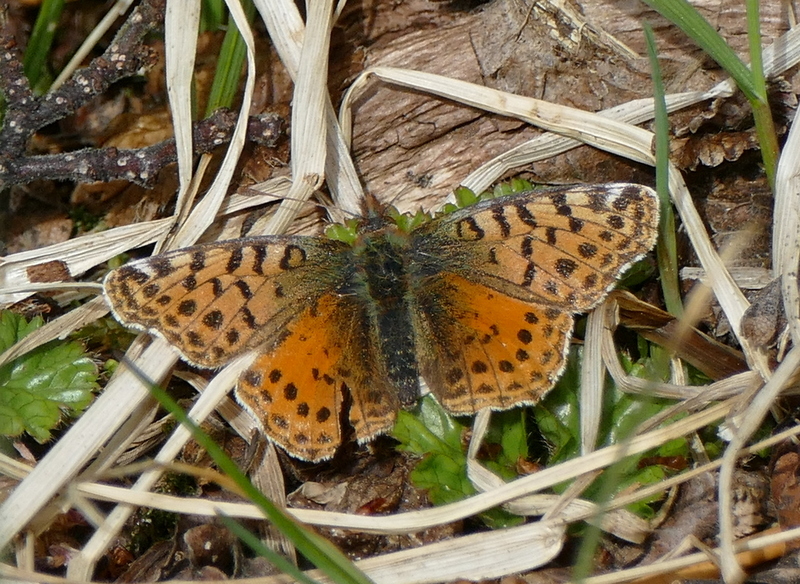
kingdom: Animalia
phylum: Arthropoda
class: Insecta
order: Lepidoptera
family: Nymphalidae
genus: Issoria
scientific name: Issoria Yramea cytheris
